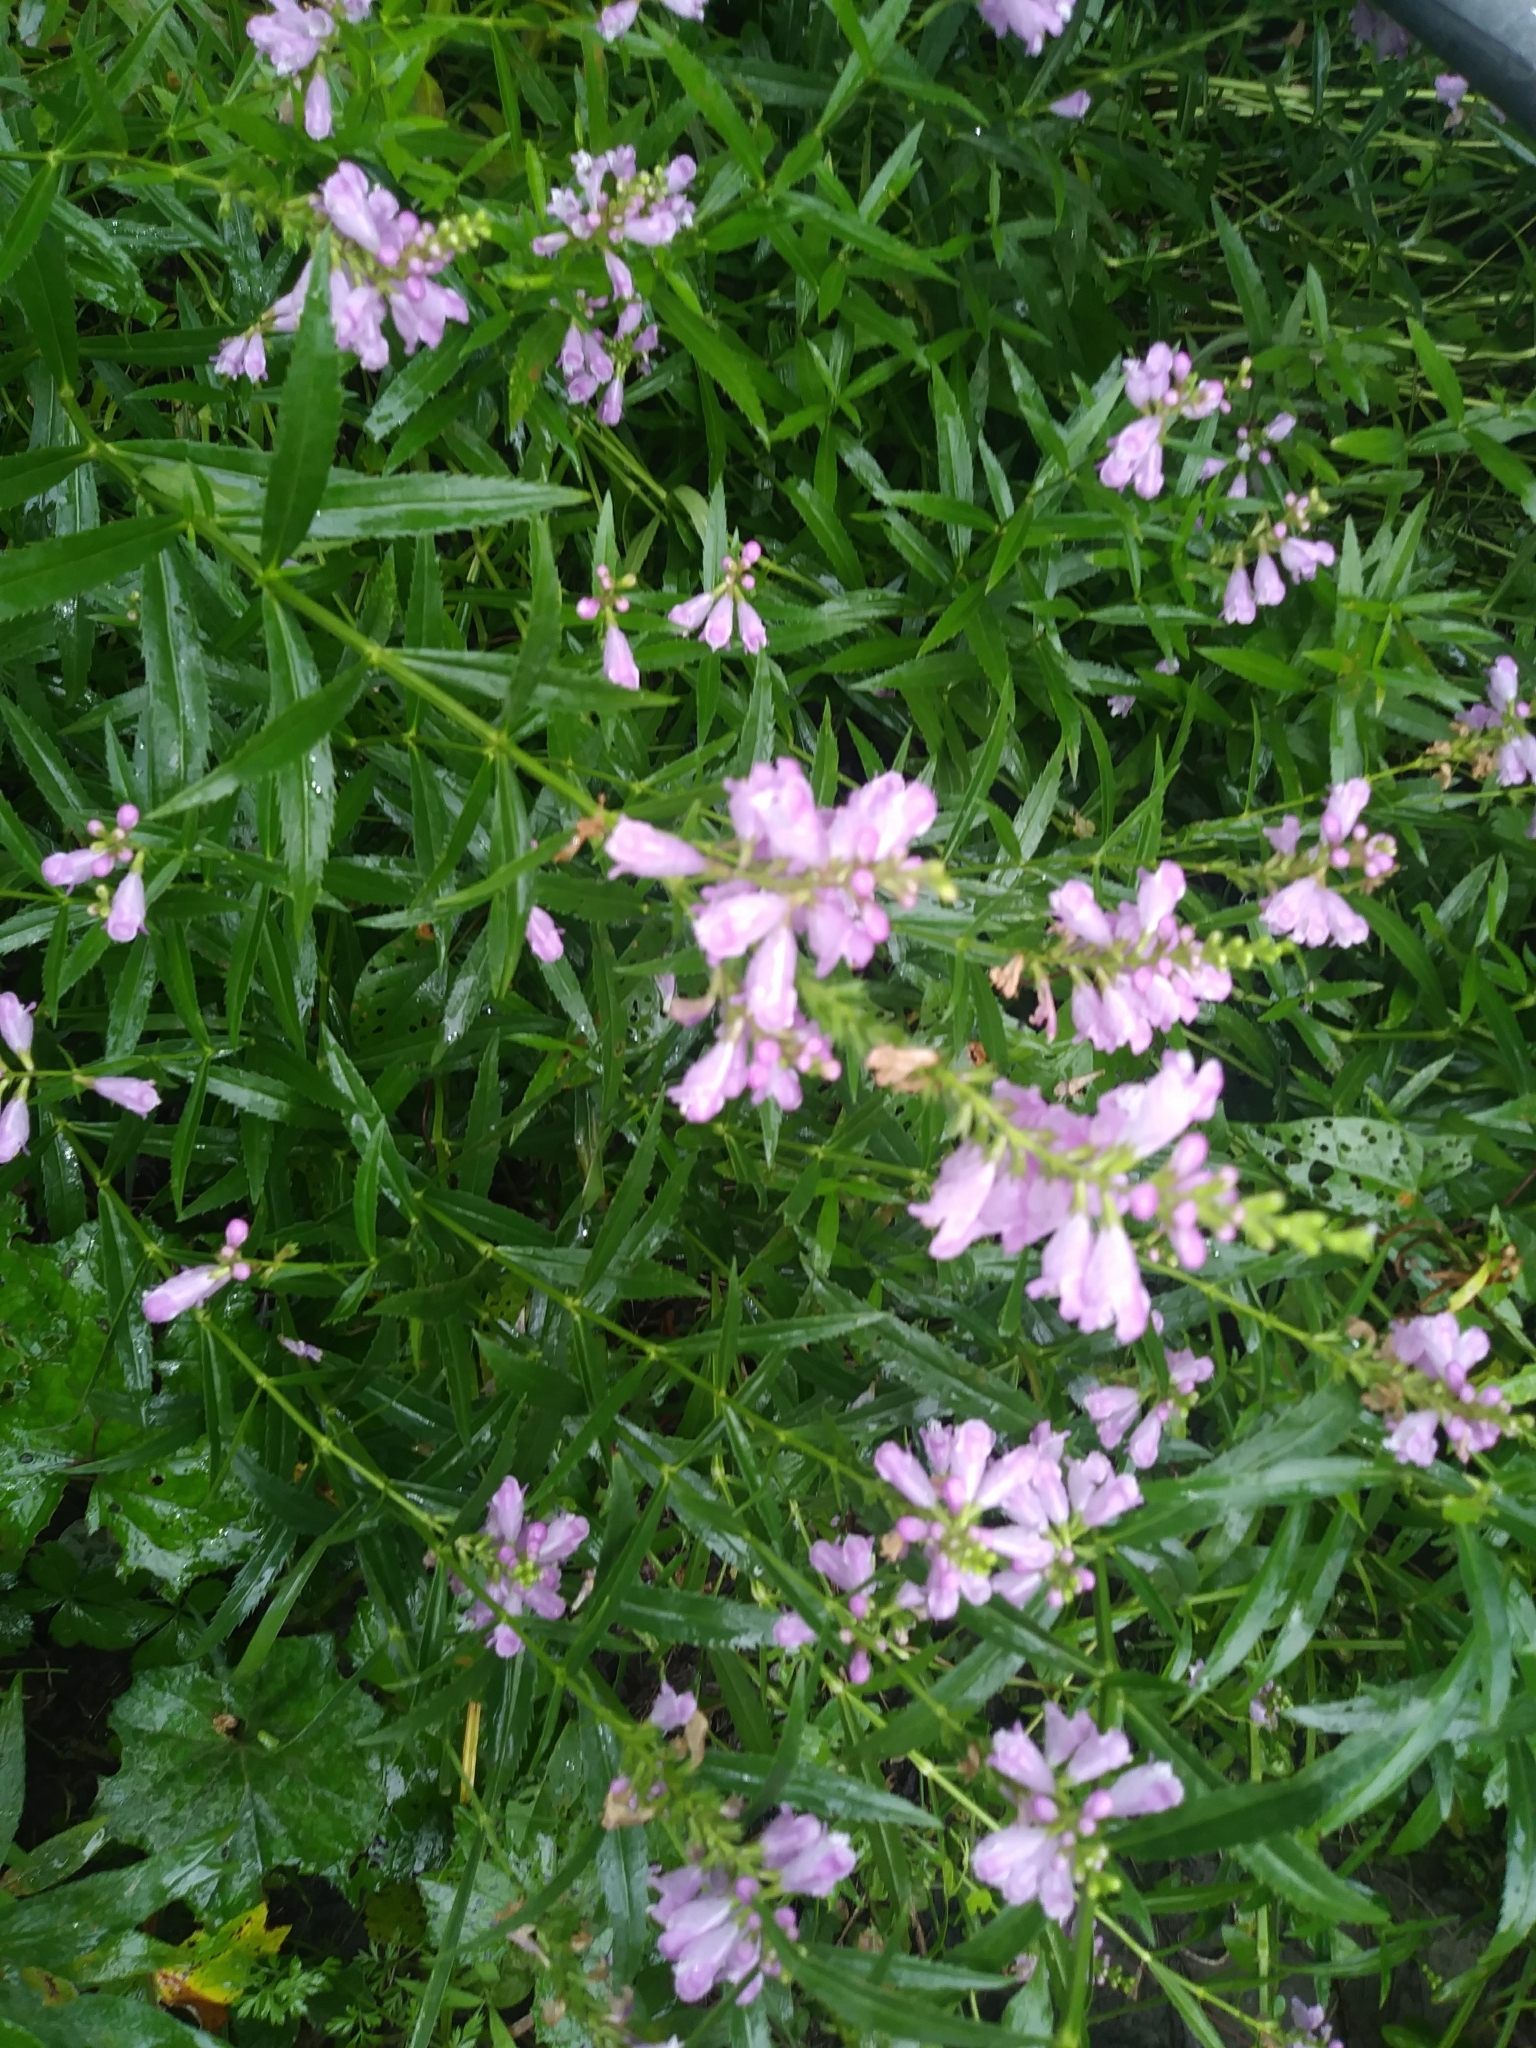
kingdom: Plantae
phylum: Tracheophyta
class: Magnoliopsida
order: Lamiales
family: Lamiaceae
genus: Physostegia
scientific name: Physostegia virginiana
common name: Obedient-plant
